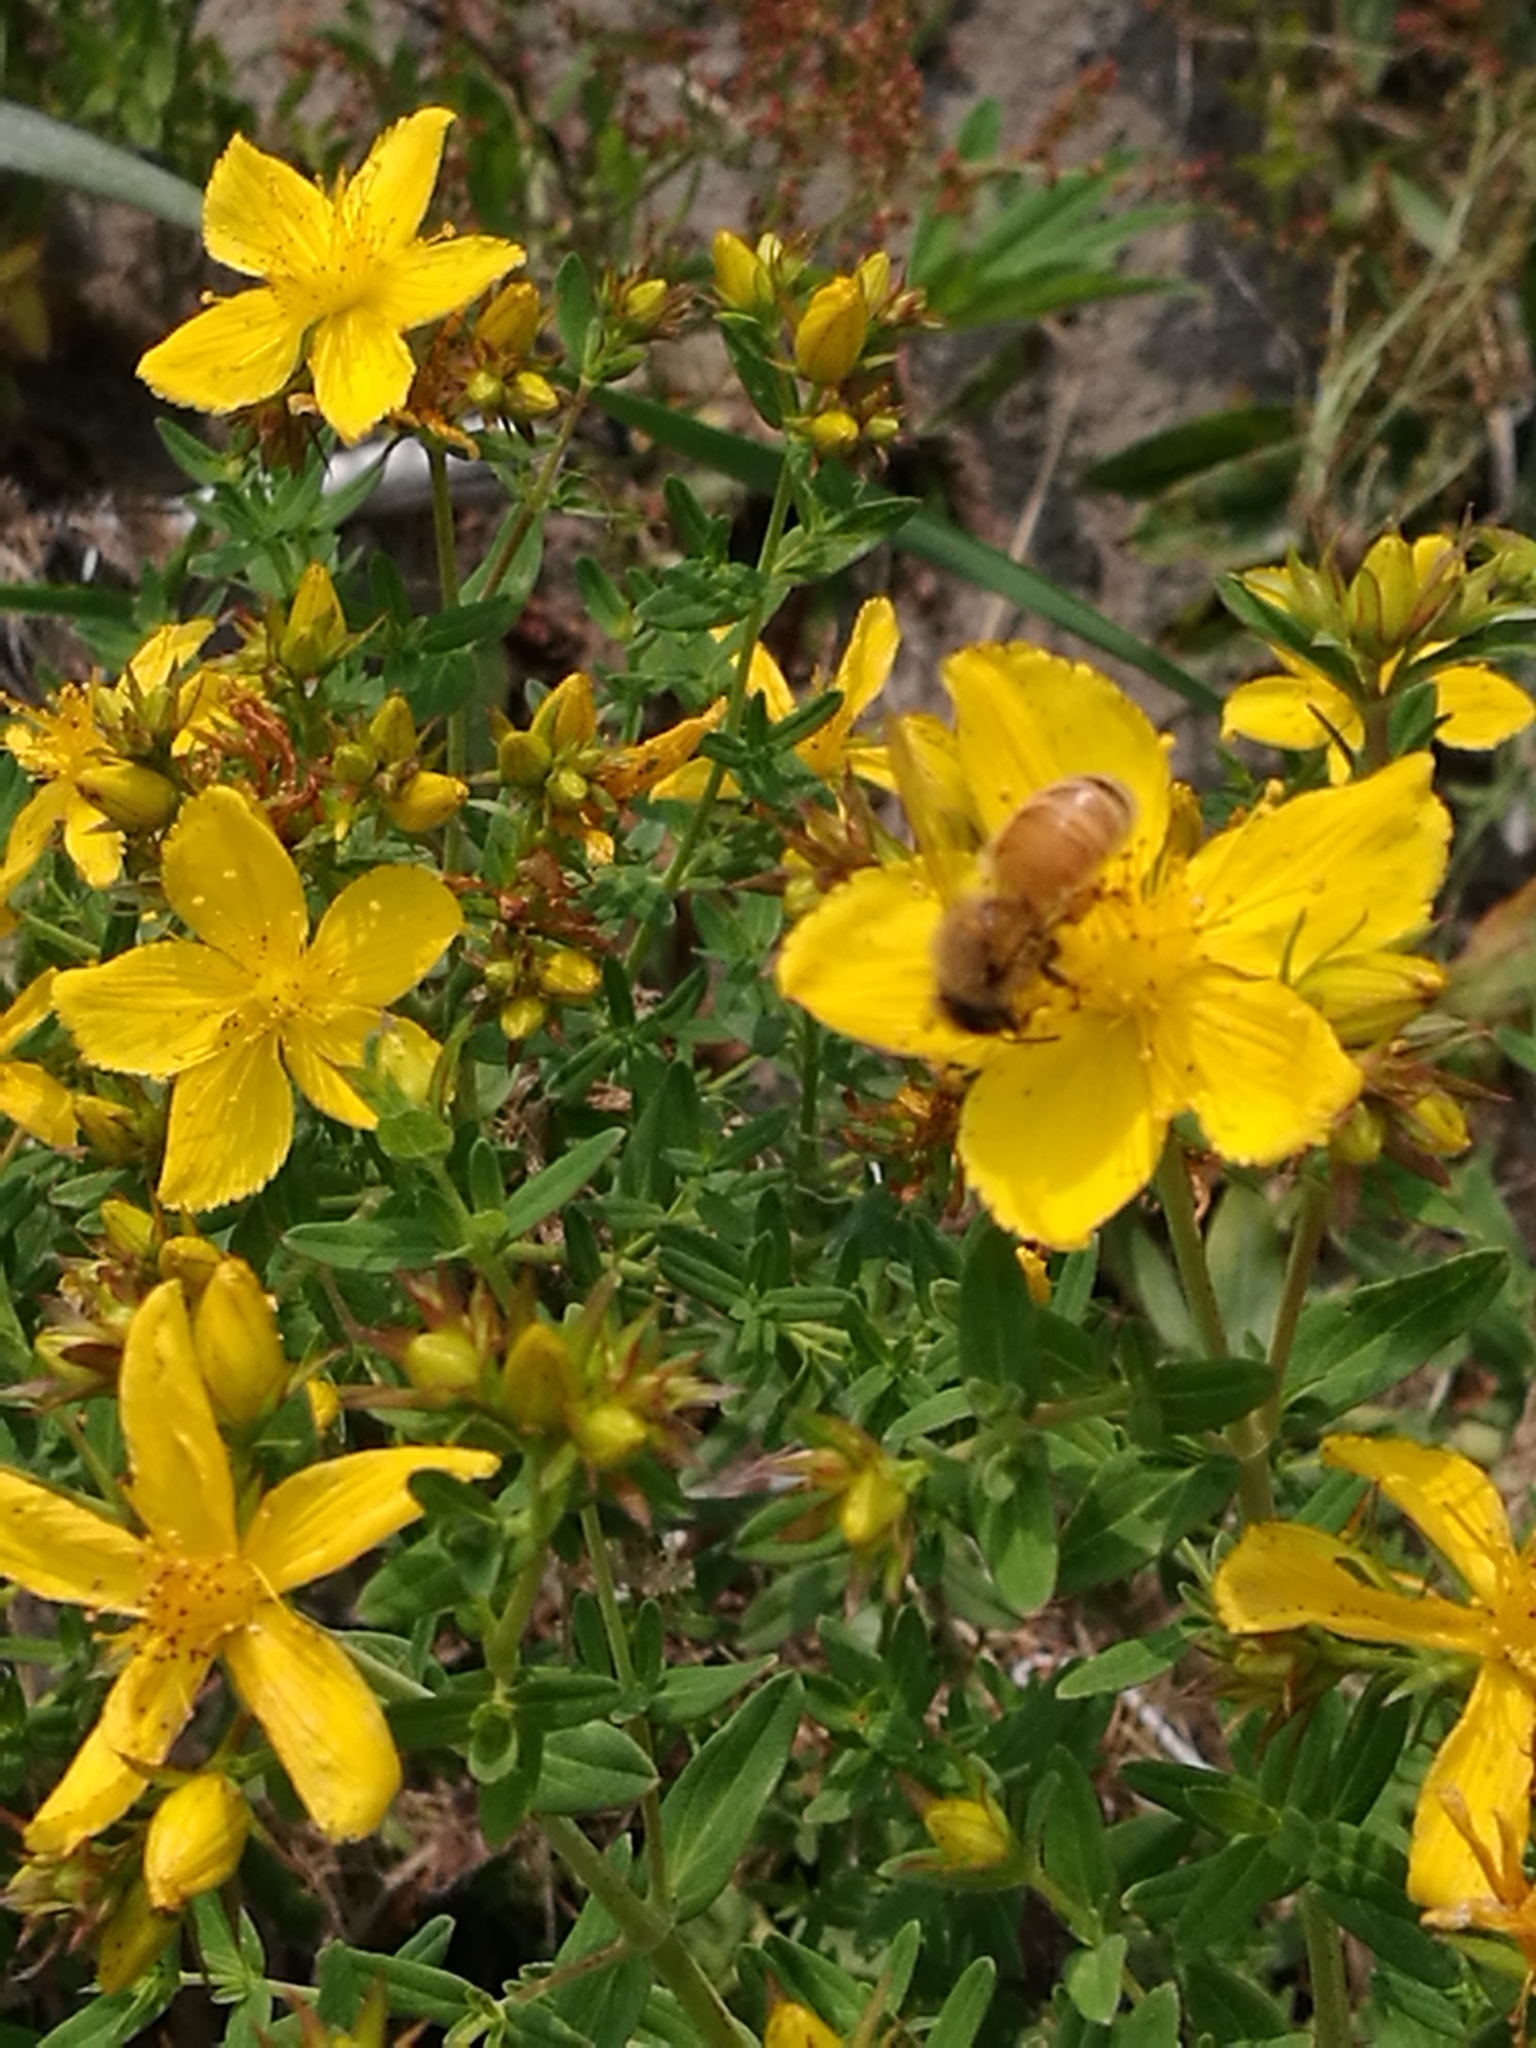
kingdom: Animalia
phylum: Arthropoda
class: Insecta
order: Hymenoptera
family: Apidae
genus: Apis
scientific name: Apis mellifera
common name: Honey bee
